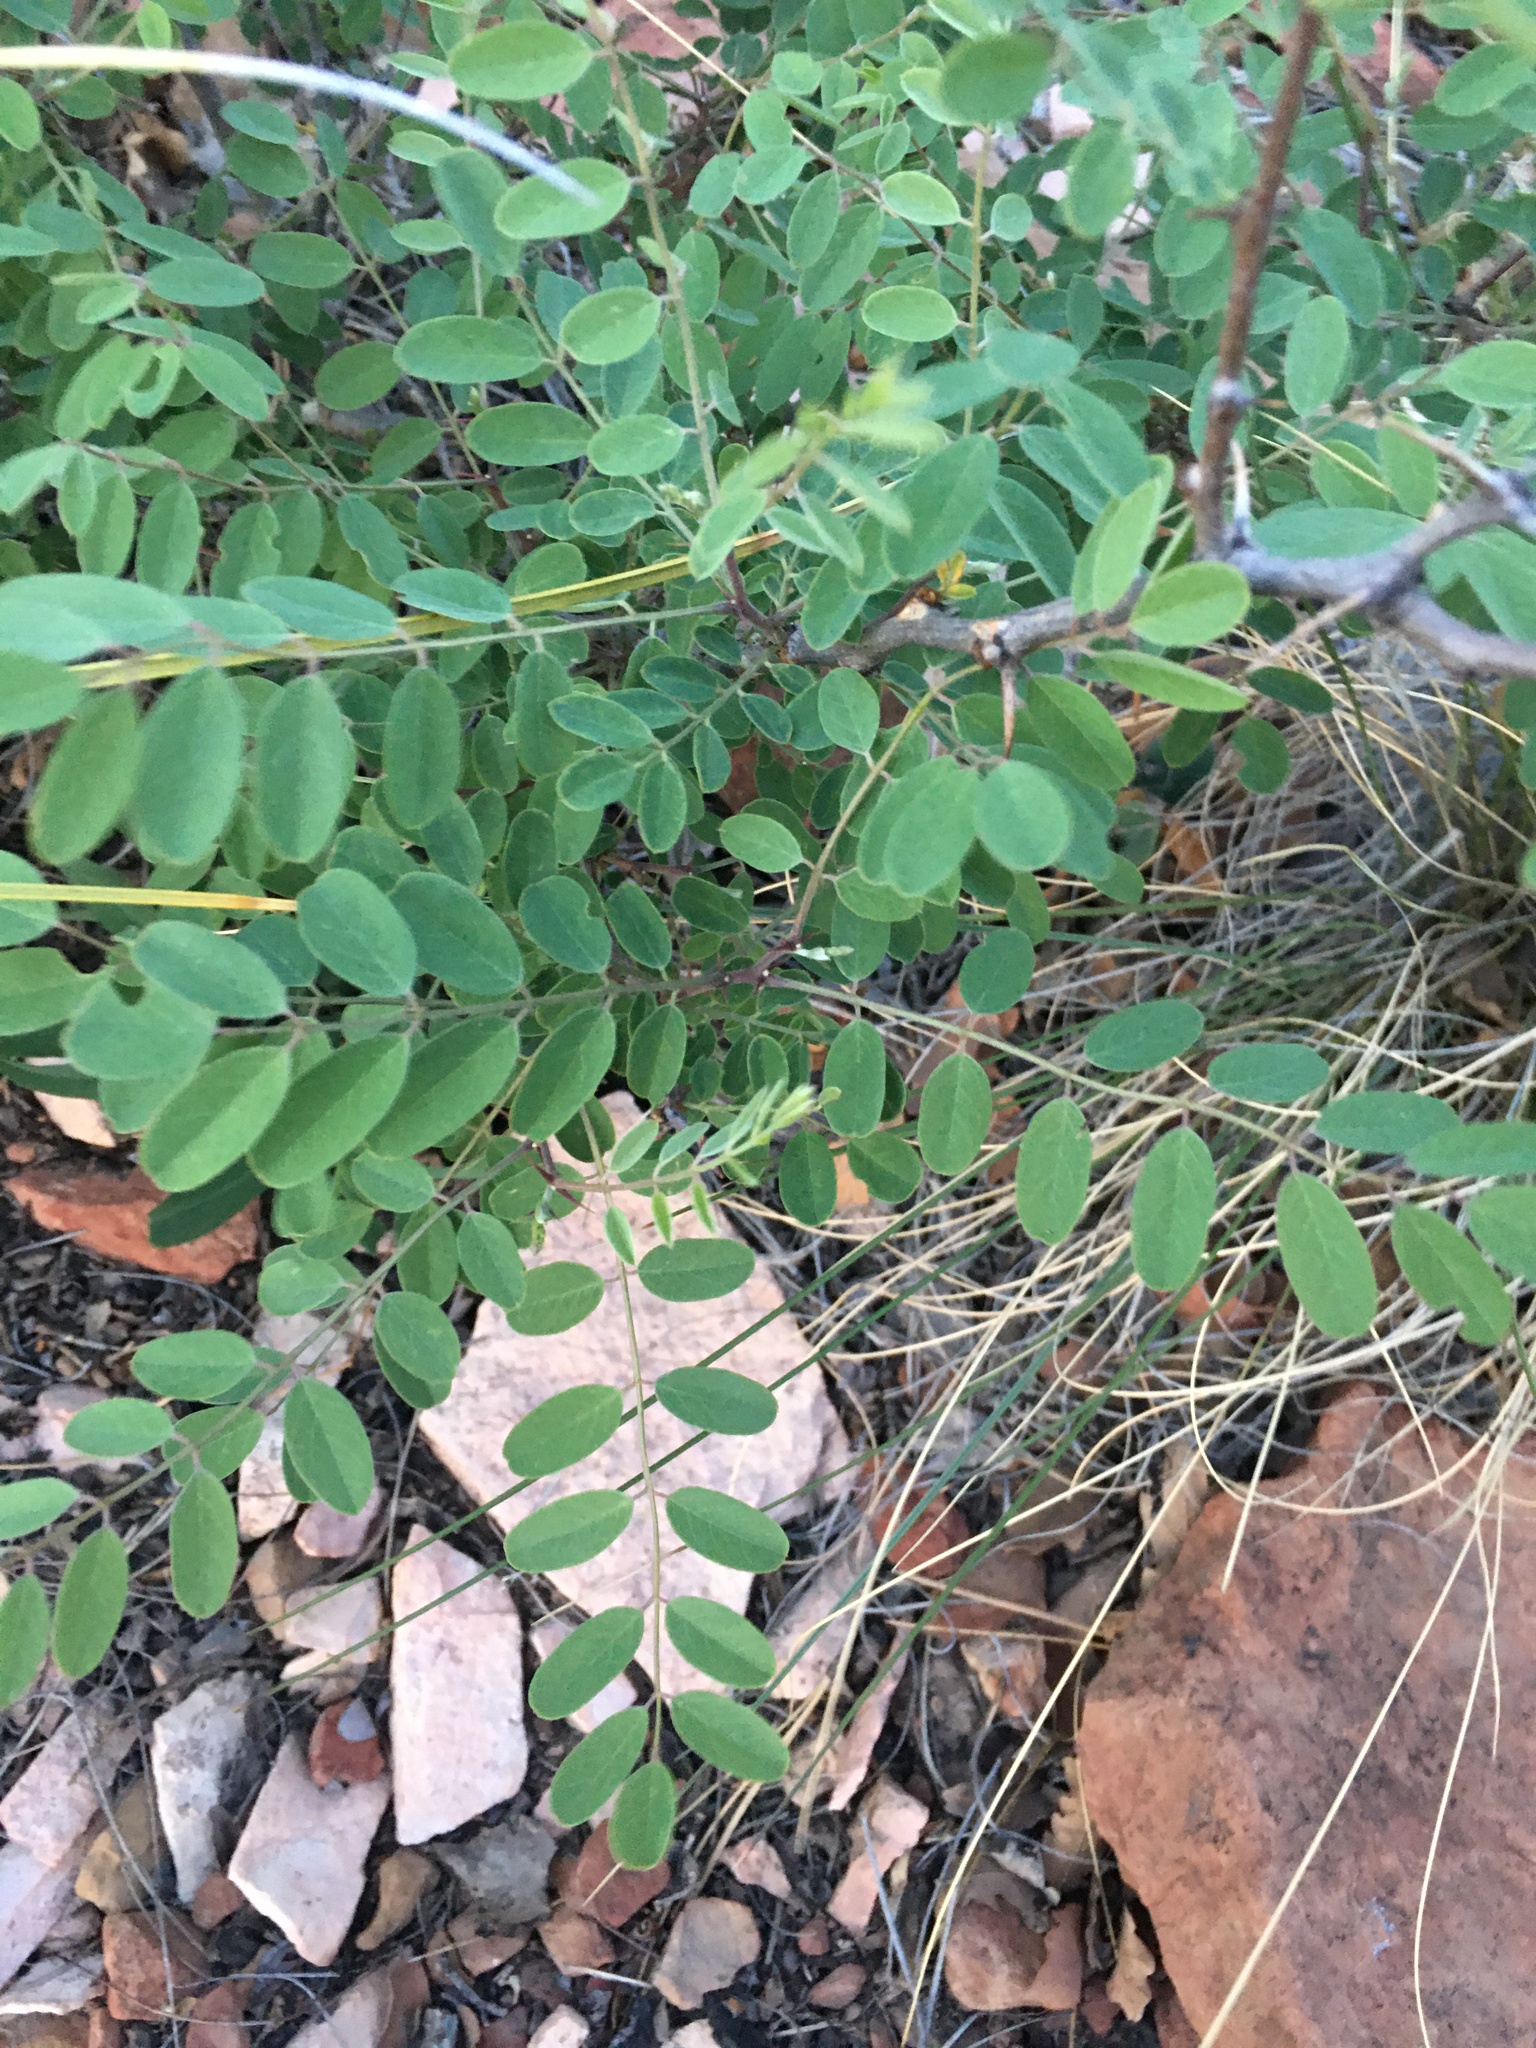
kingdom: Plantae
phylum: Tracheophyta
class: Magnoliopsida
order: Fabales
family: Fabaceae
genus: Robinia
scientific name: Robinia neomexicana
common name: New mexico locust
